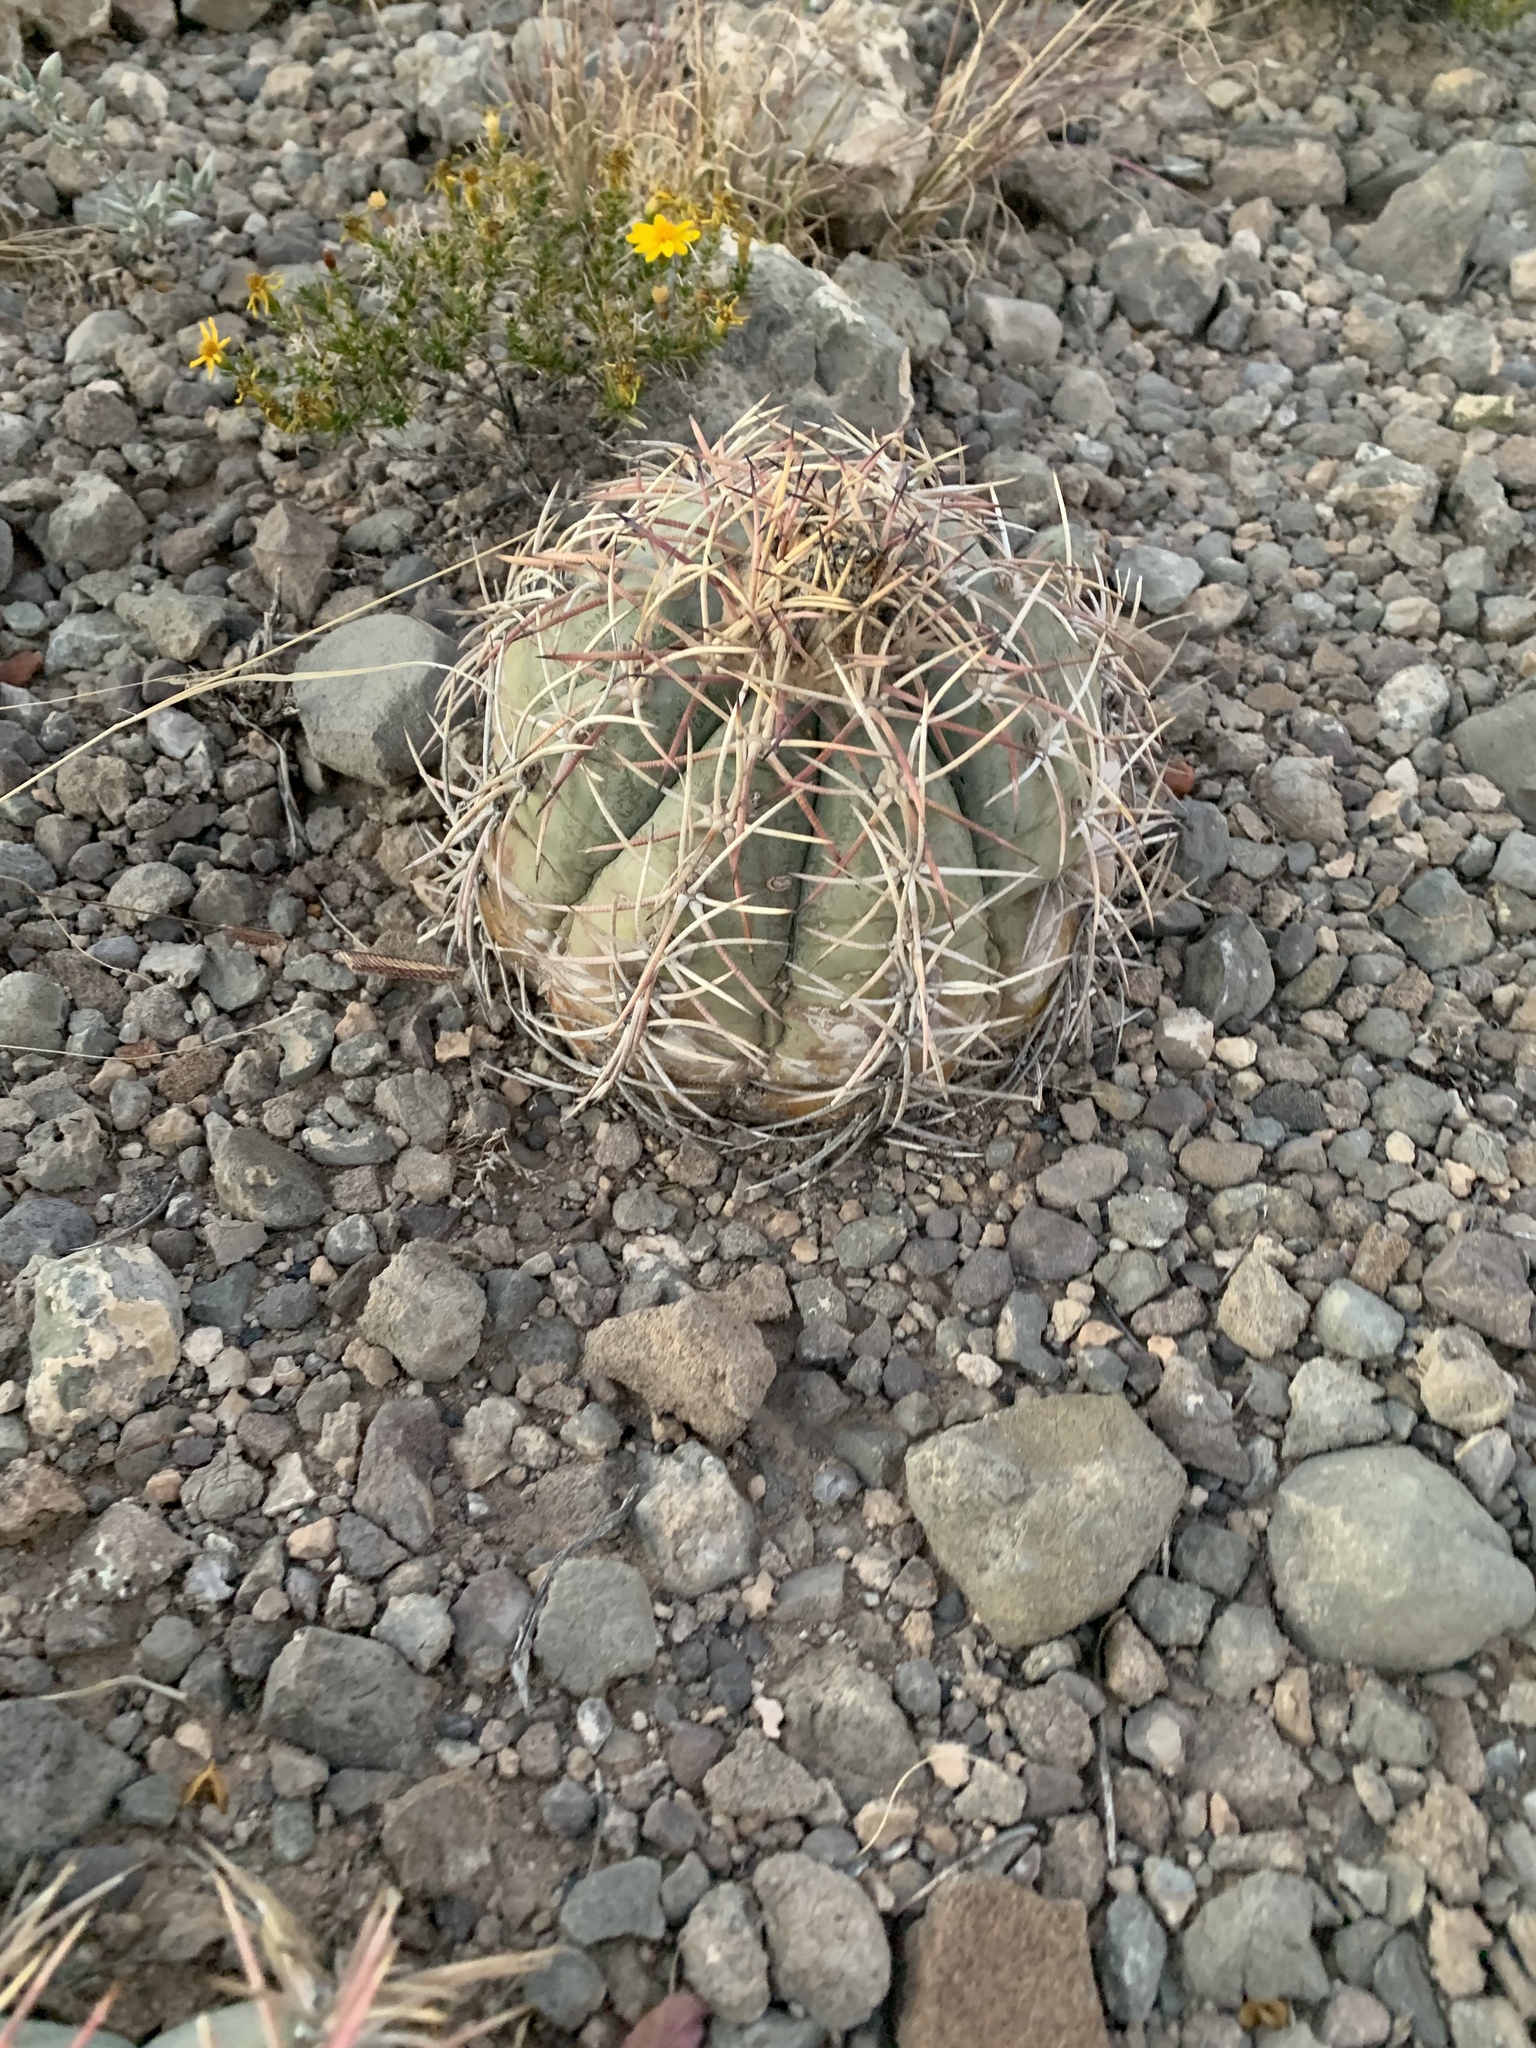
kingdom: Plantae
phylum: Tracheophyta
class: Magnoliopsida
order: Caryophyllales
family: Cactaceae
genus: Echinocactus
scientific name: Echinocactus horizonthalonius
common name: Devilshead
